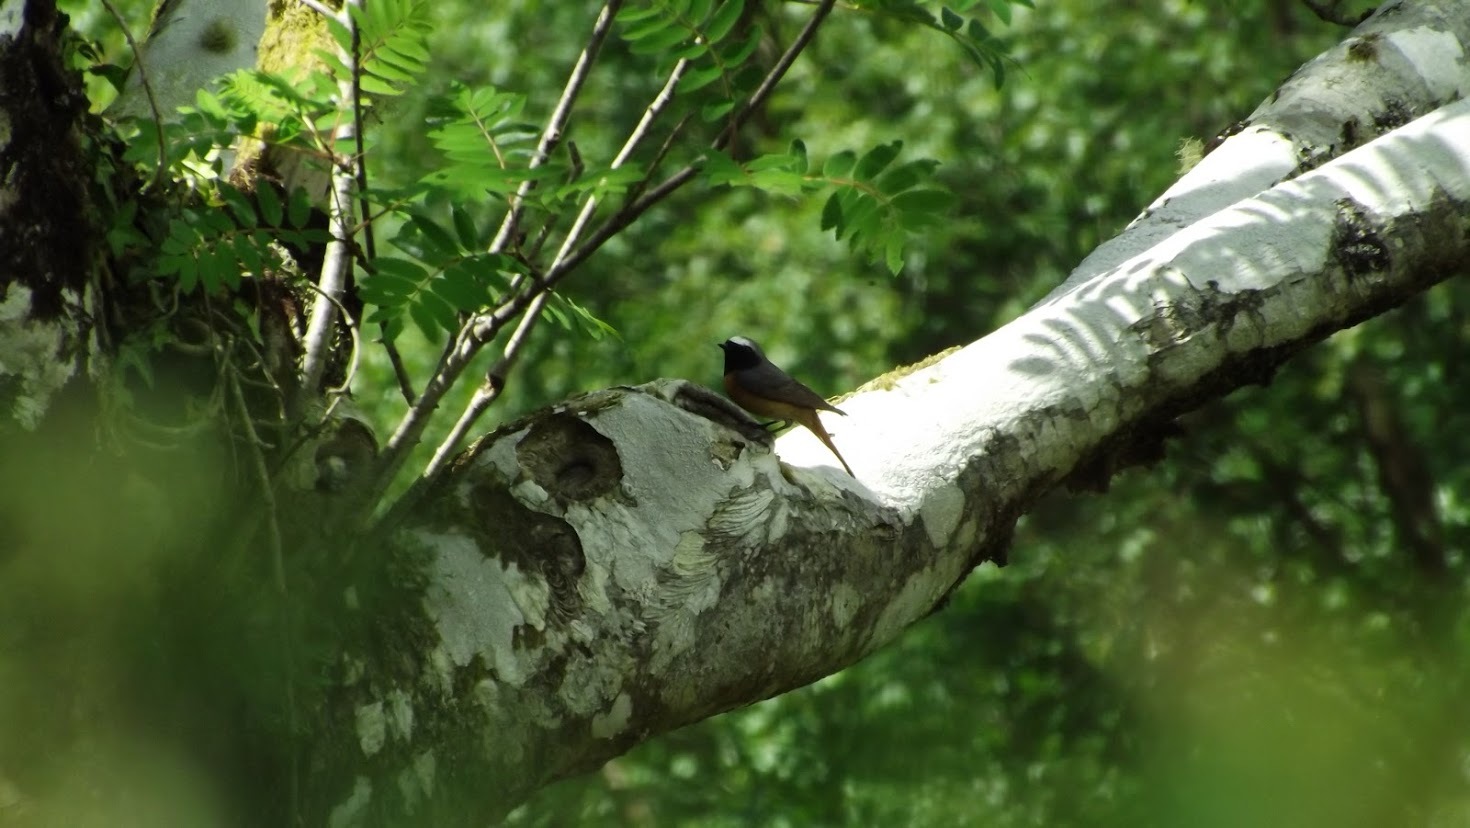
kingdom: Animalia
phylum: Chordata
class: Aves
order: Passeriformes
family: Muscicapidae
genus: Phoenicurus
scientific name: Phoenicurus phoenicurus
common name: Common redstart
